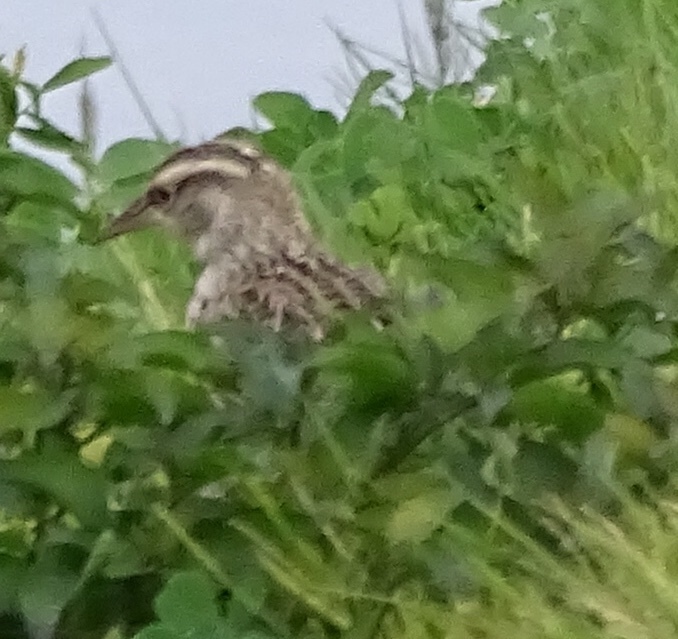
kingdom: Animalia
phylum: Chordata
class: Aves
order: Passeriformes
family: Icteridae
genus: Sturnella
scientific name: Sturnella neglecta
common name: Western meadowlark
